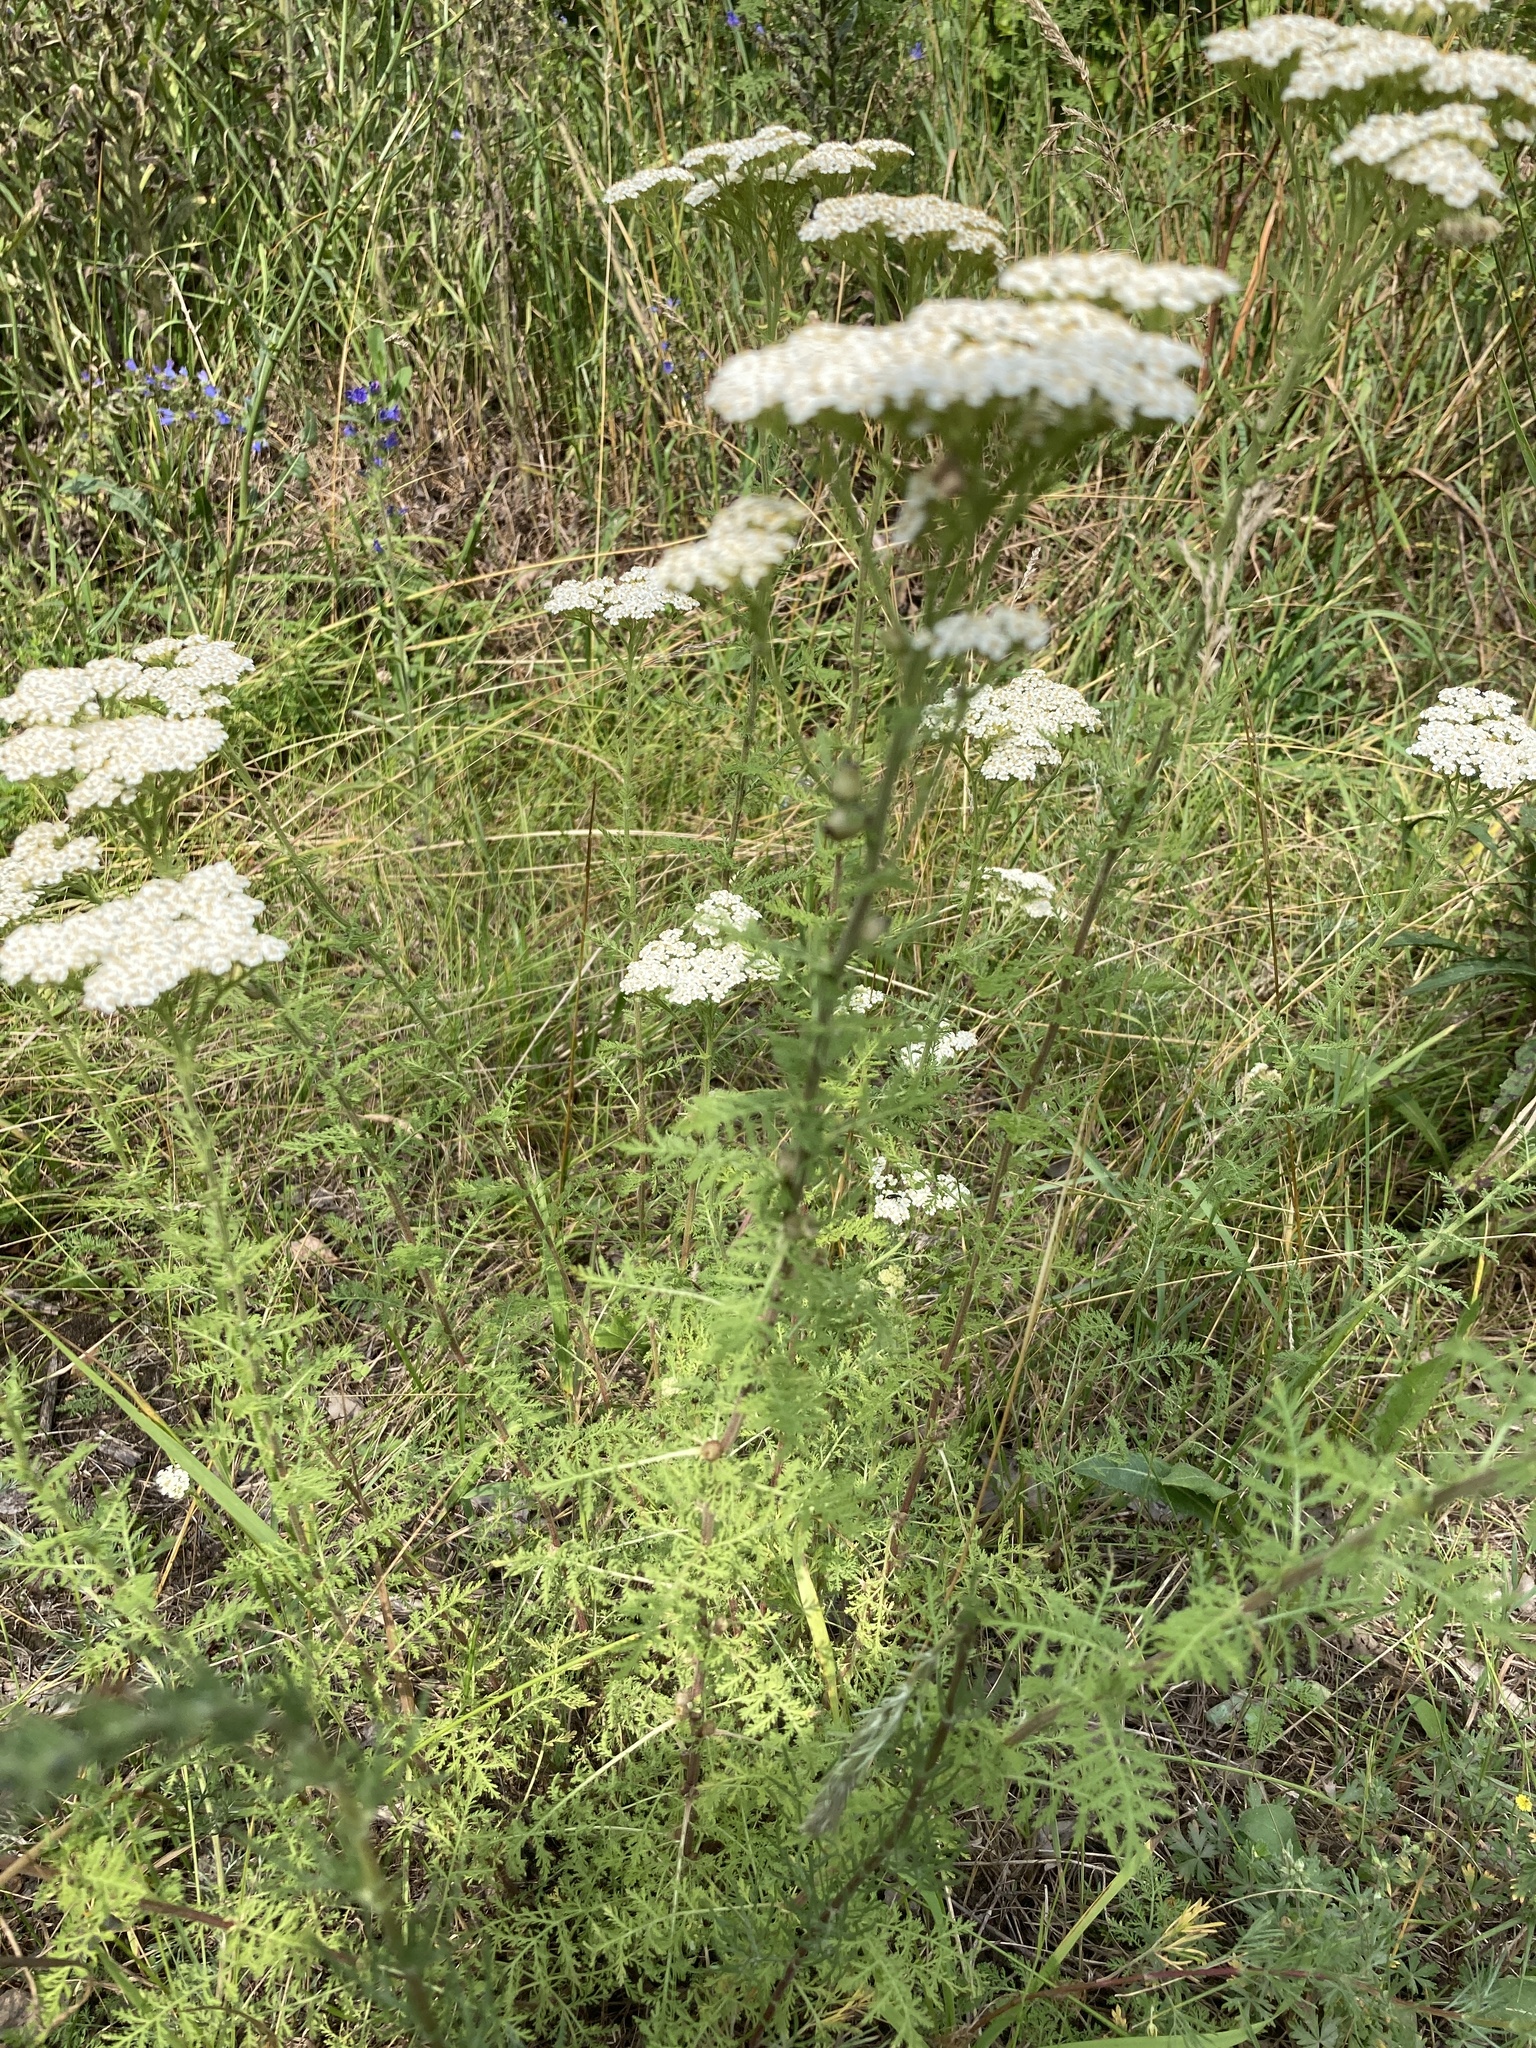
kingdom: Plantae
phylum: Tracheophyta
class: Magnoliopsida
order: Asterales
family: Asteraceae
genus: Achillea
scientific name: Achillea nobilis
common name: Noble yarrow
